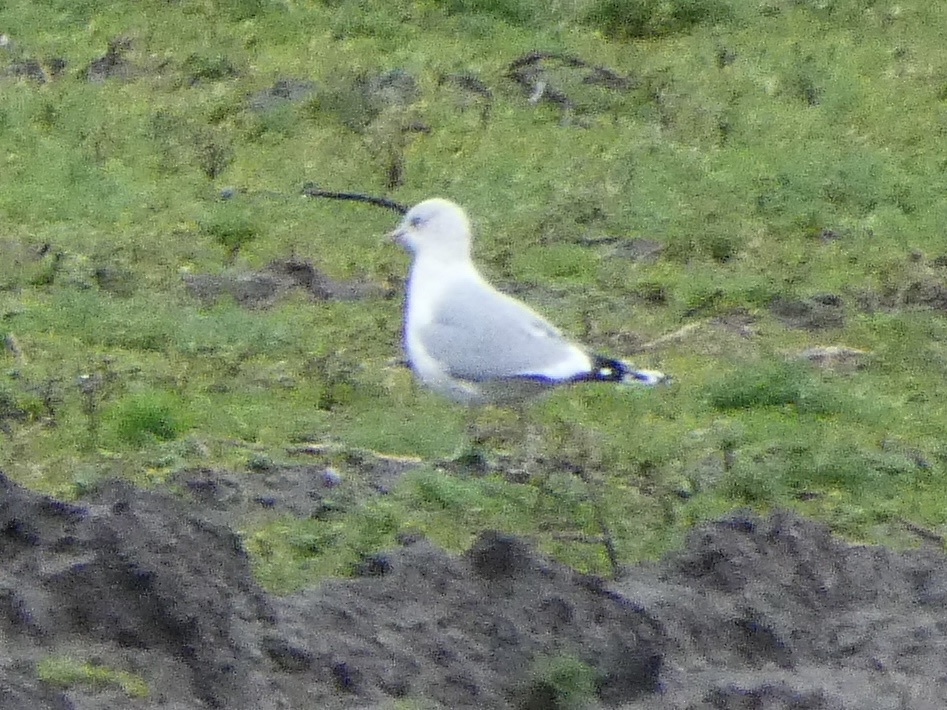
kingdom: Animalia
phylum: Chordata
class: Aves
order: Charadriiformes
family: Laridae
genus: Larus
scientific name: Larus canus
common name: Mew gull
